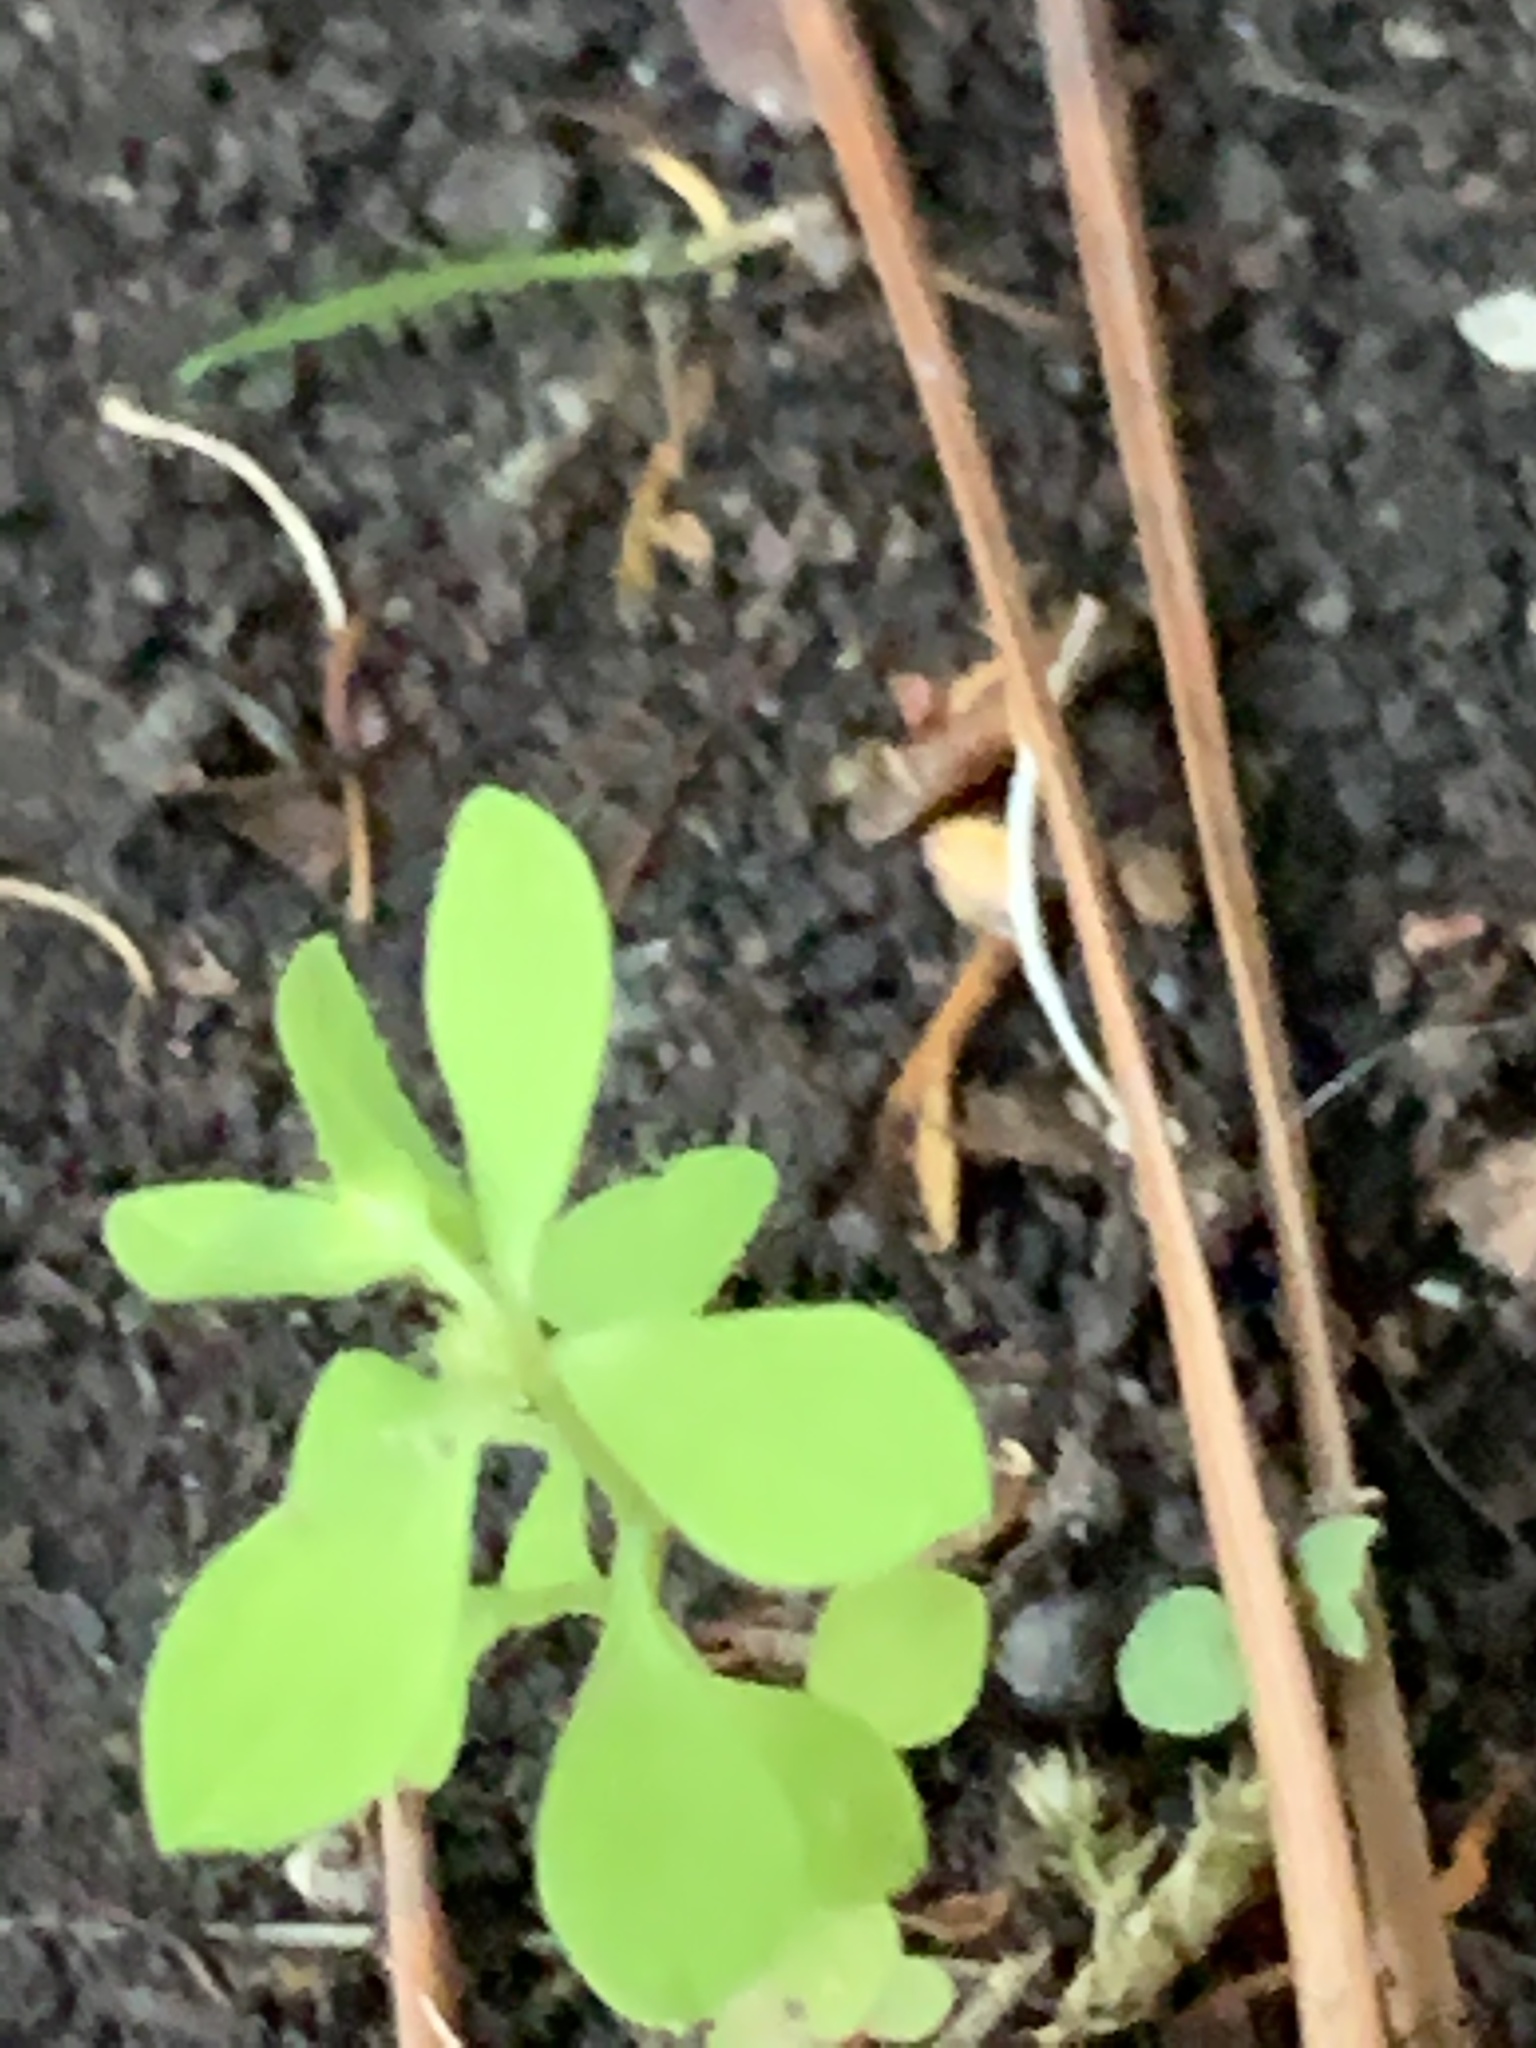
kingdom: Plantae
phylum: Tracheophyta
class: Magnoliopsida
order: Malpighiales
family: Euphorbiaceae
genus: Euphorbia
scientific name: Euphorbia peplus
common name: Petty spurge
